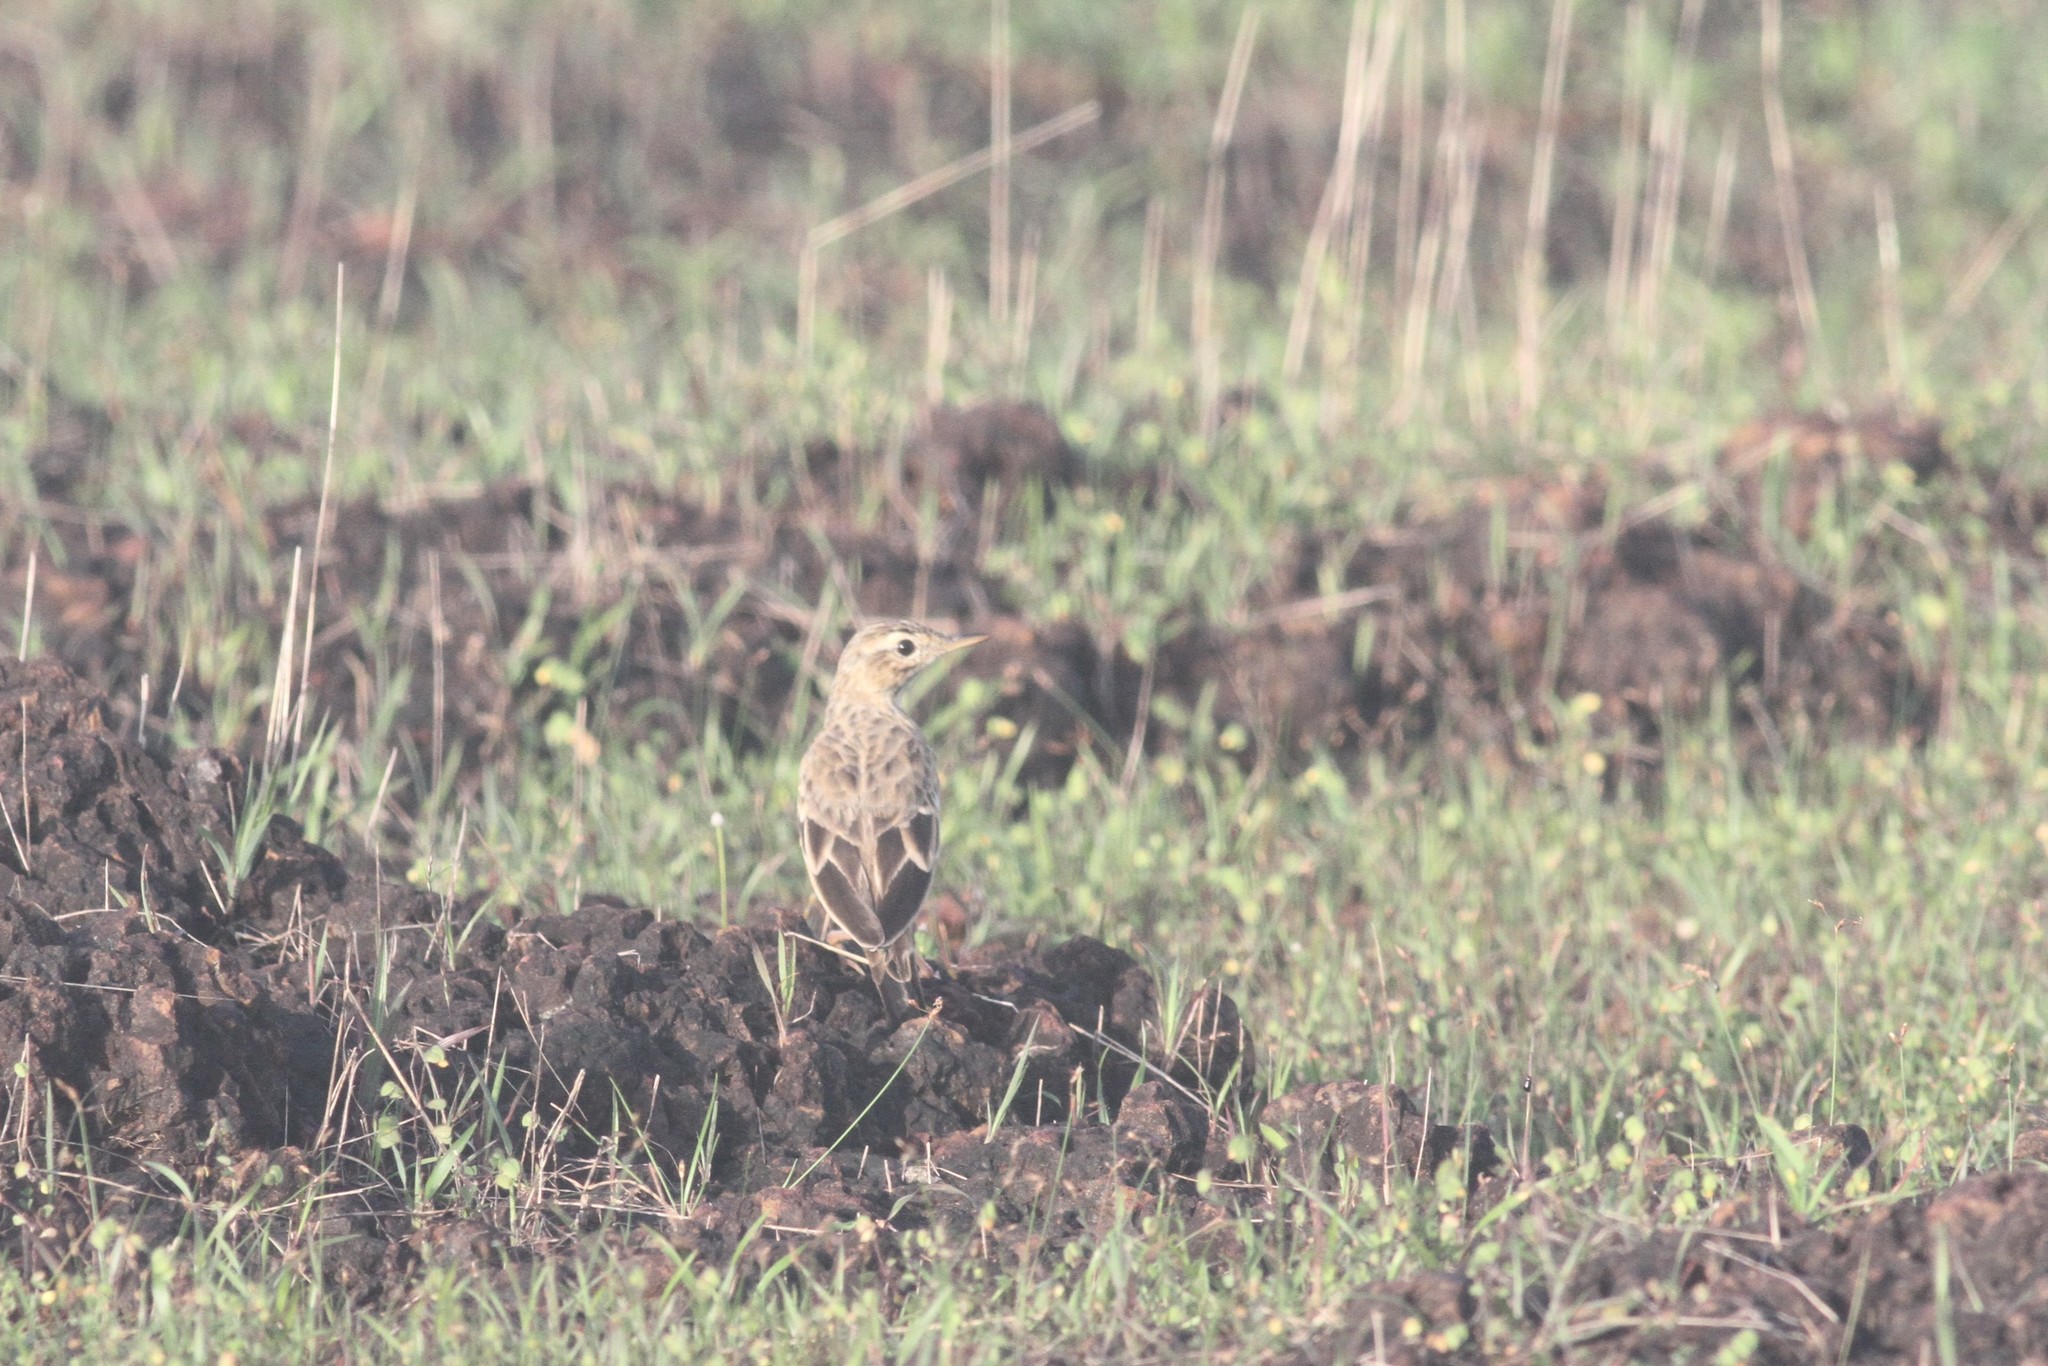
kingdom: Animalia
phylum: Chordata
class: Aves
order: Passeriformes
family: Motacillidae
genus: Anthus
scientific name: Anthus rufulus
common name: Paddyfield pipit
